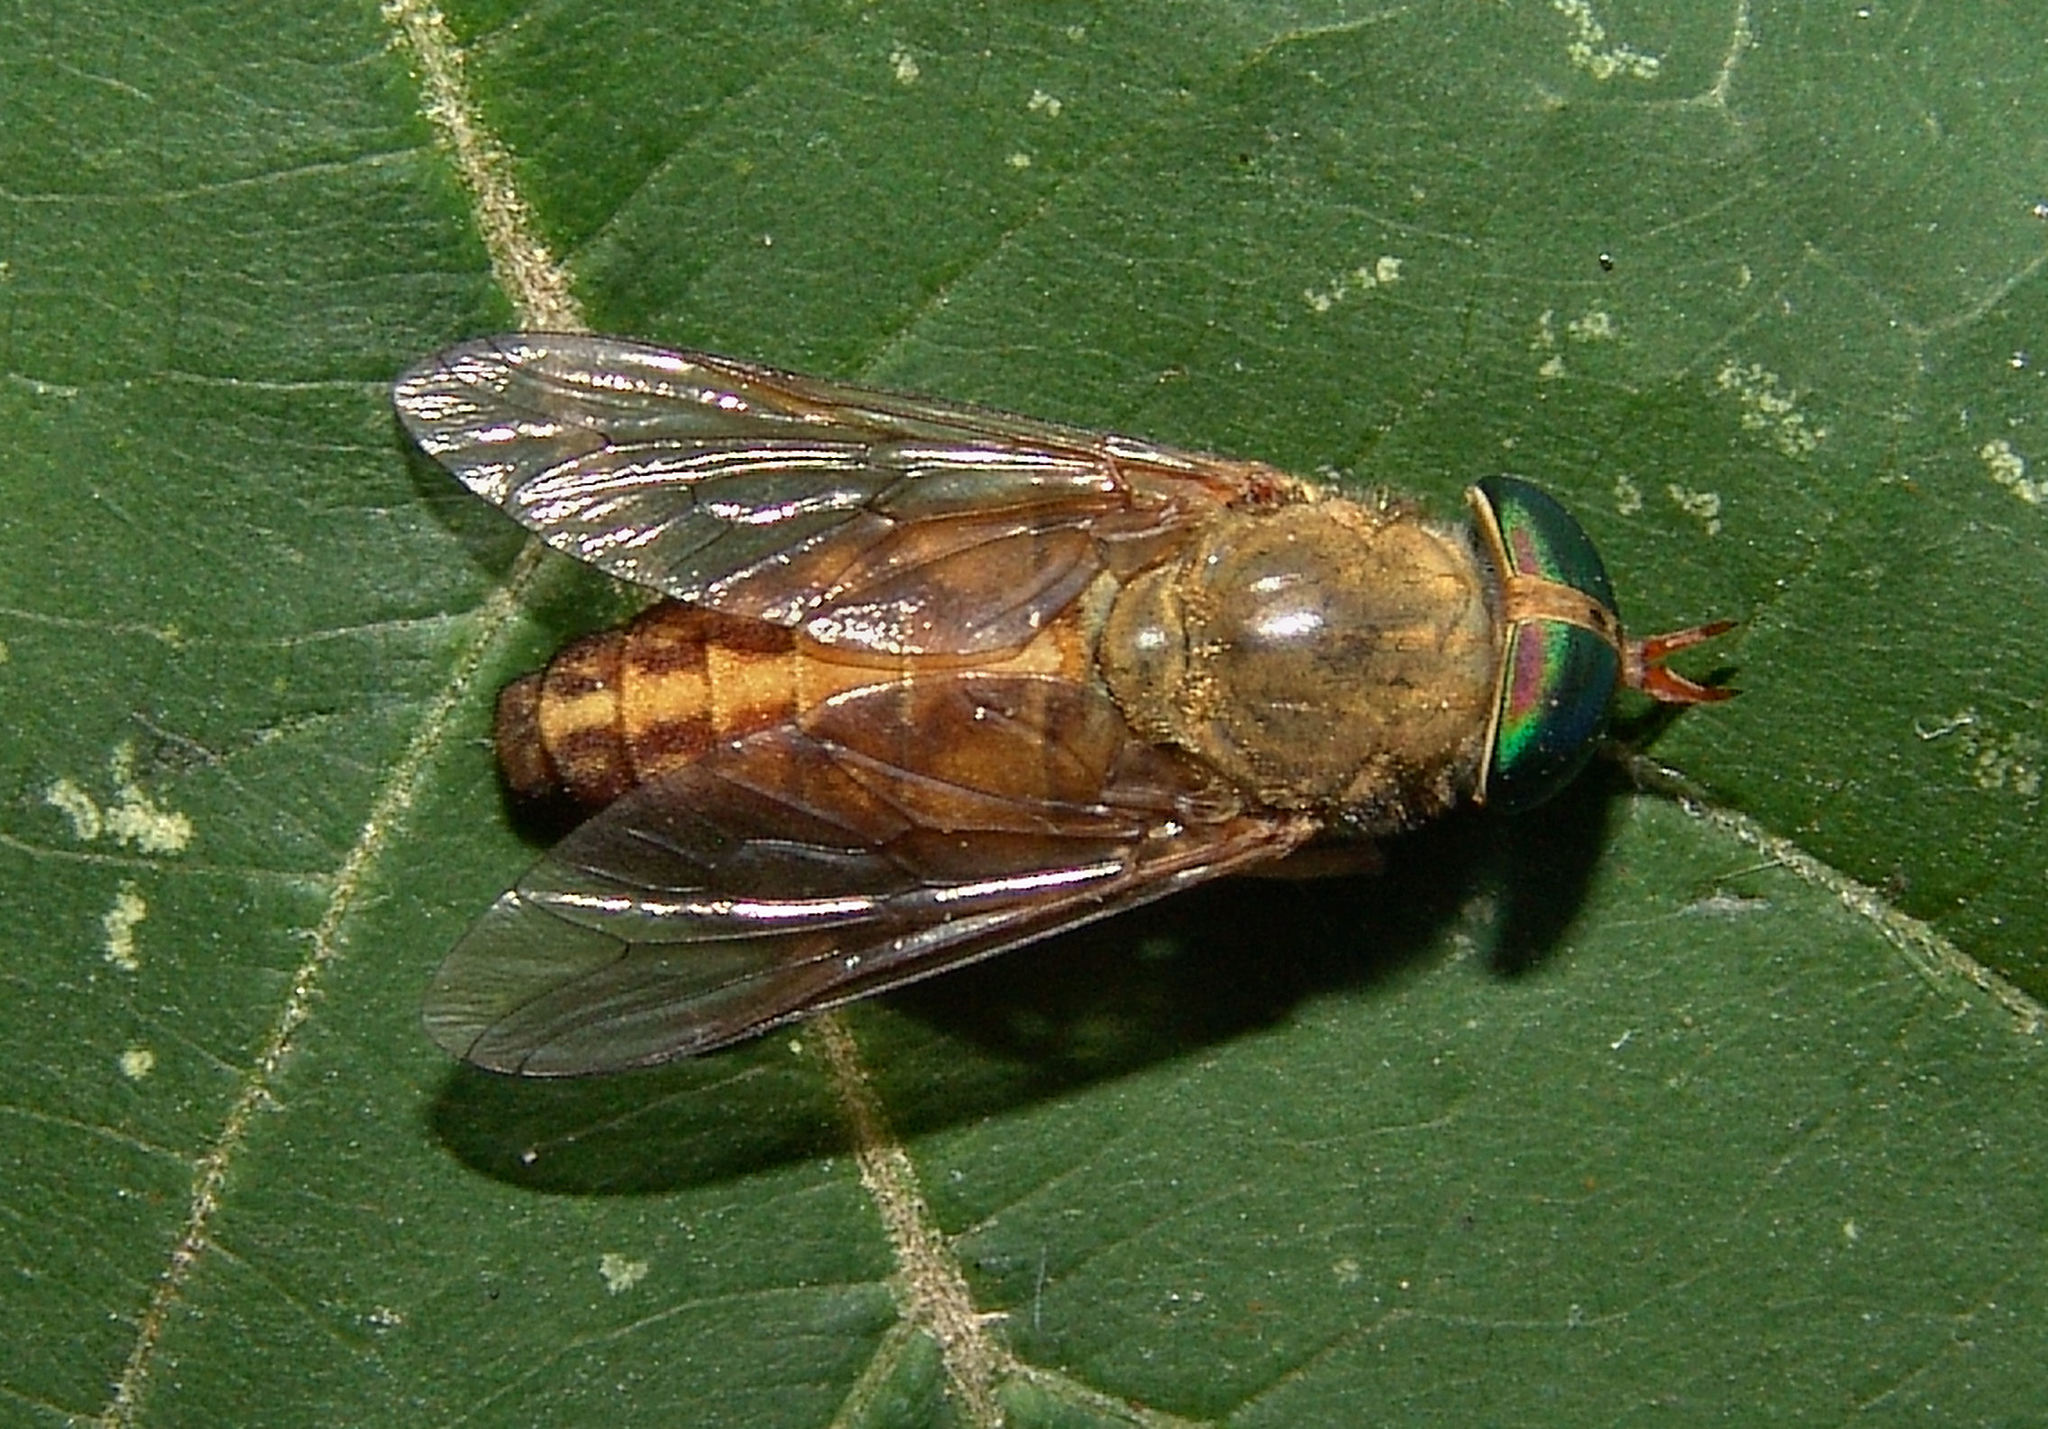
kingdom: Animalia
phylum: Arthropoda
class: Insecta
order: Diptera
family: Tabanidae
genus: Tabanus
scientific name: Tabanus pallidescens
